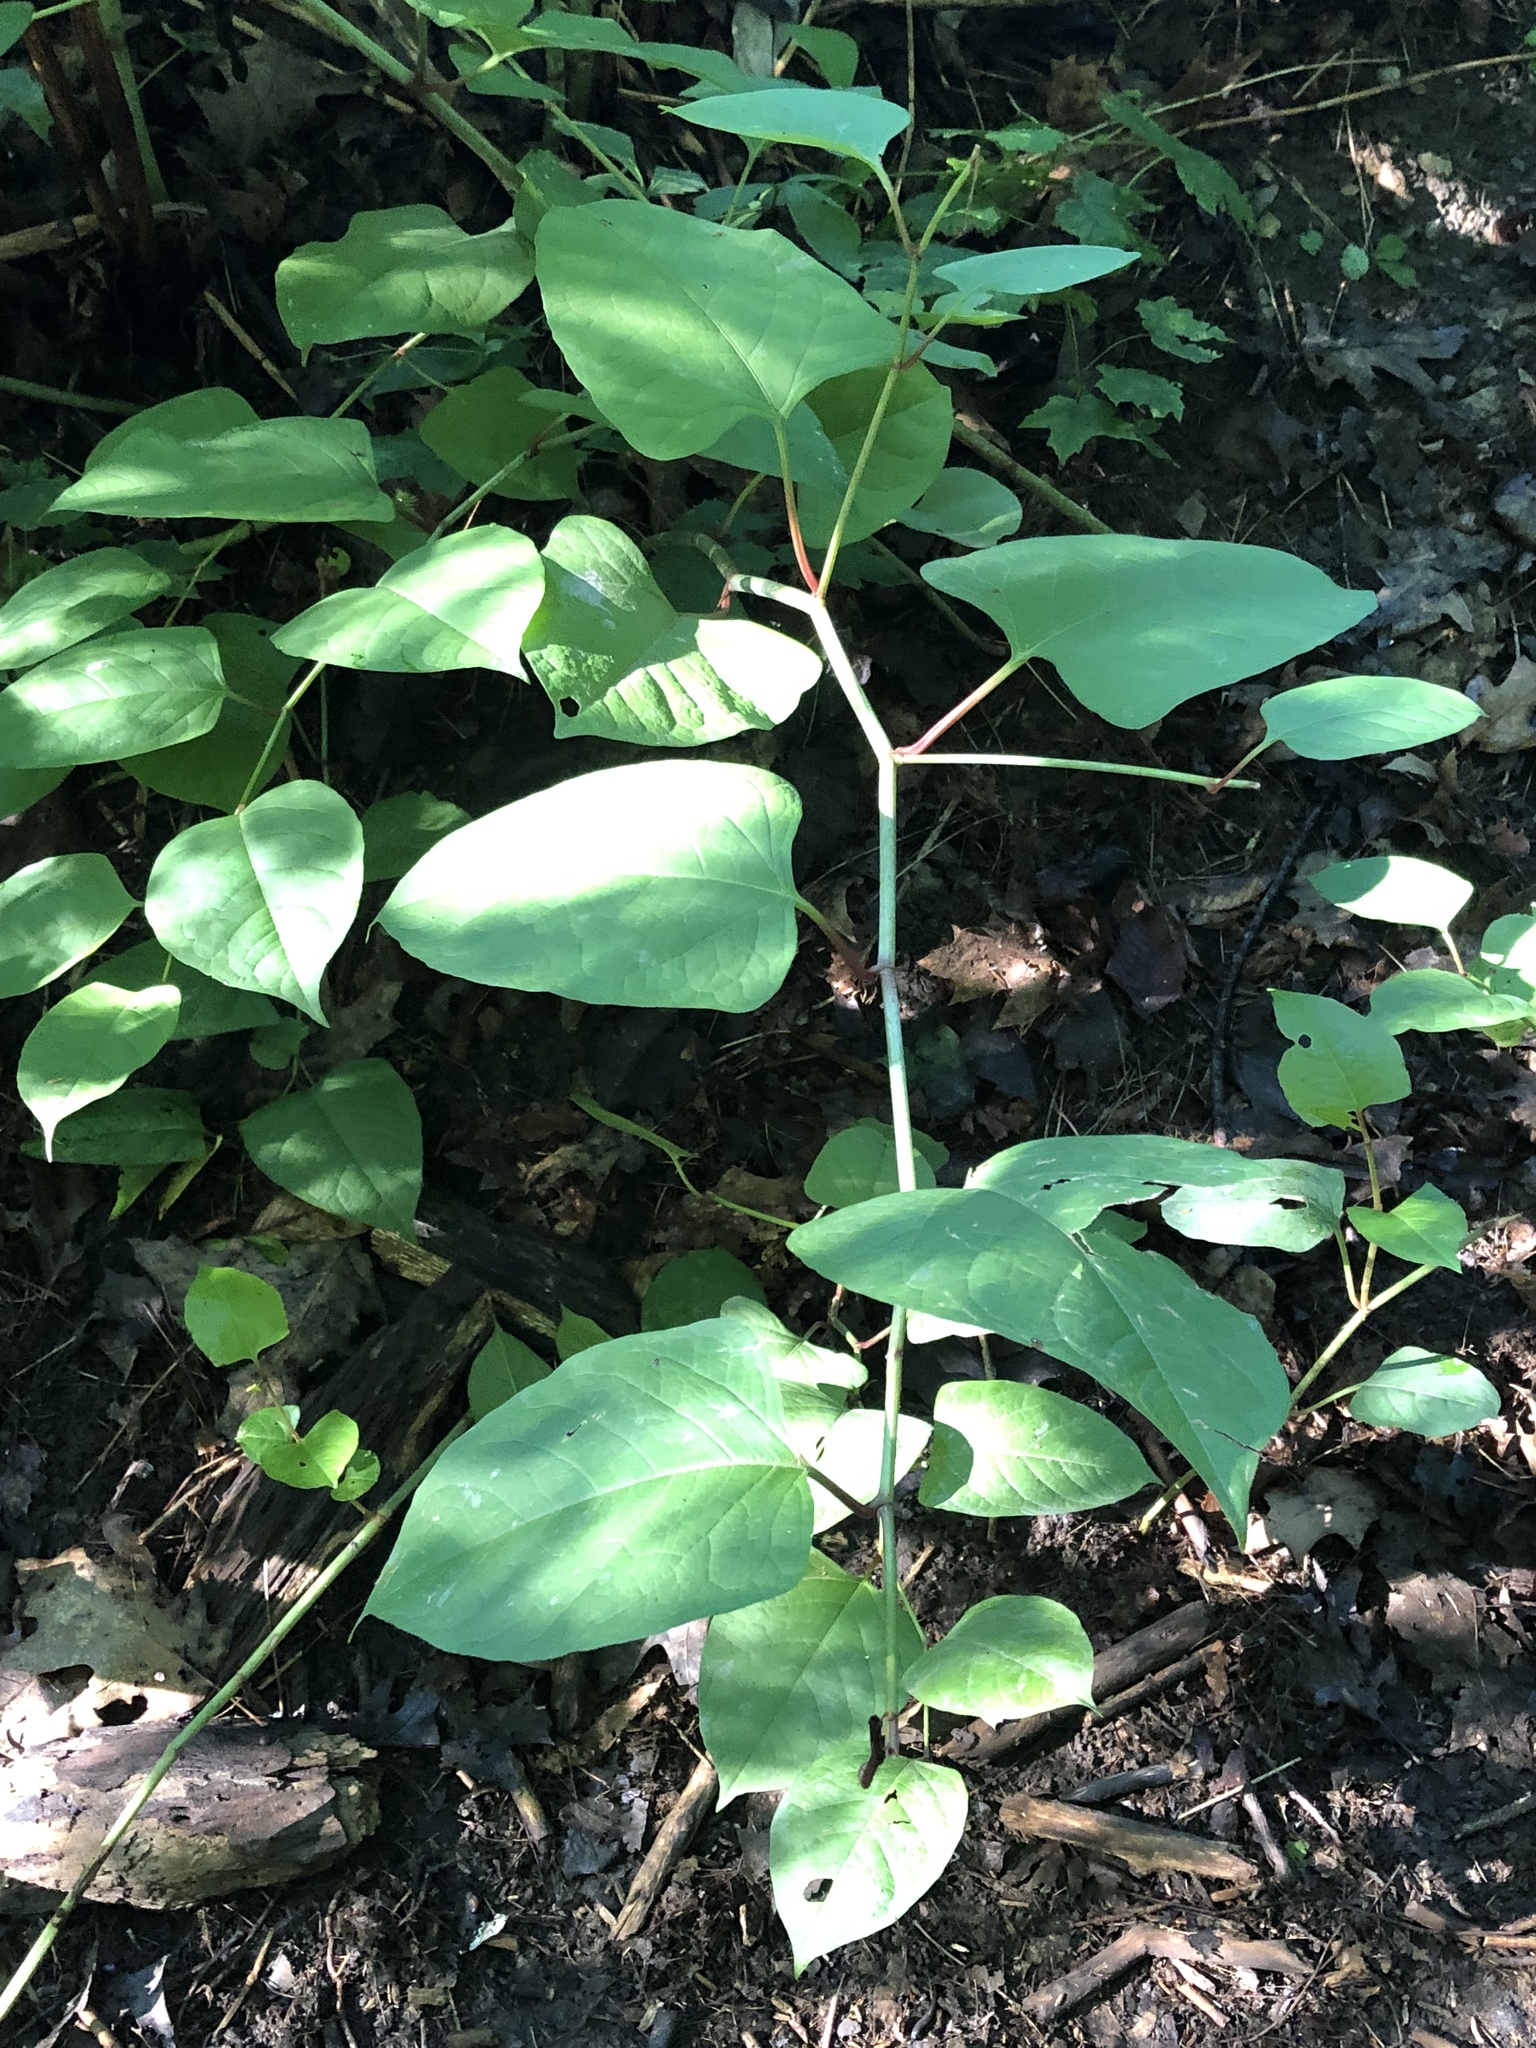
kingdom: Plantae
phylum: Tracheophyta
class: Magnoliopsida
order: Caryophyllales
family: Polygonaceae
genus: Reynoutria
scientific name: Reynoutria japonica
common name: Japanese knotweed
